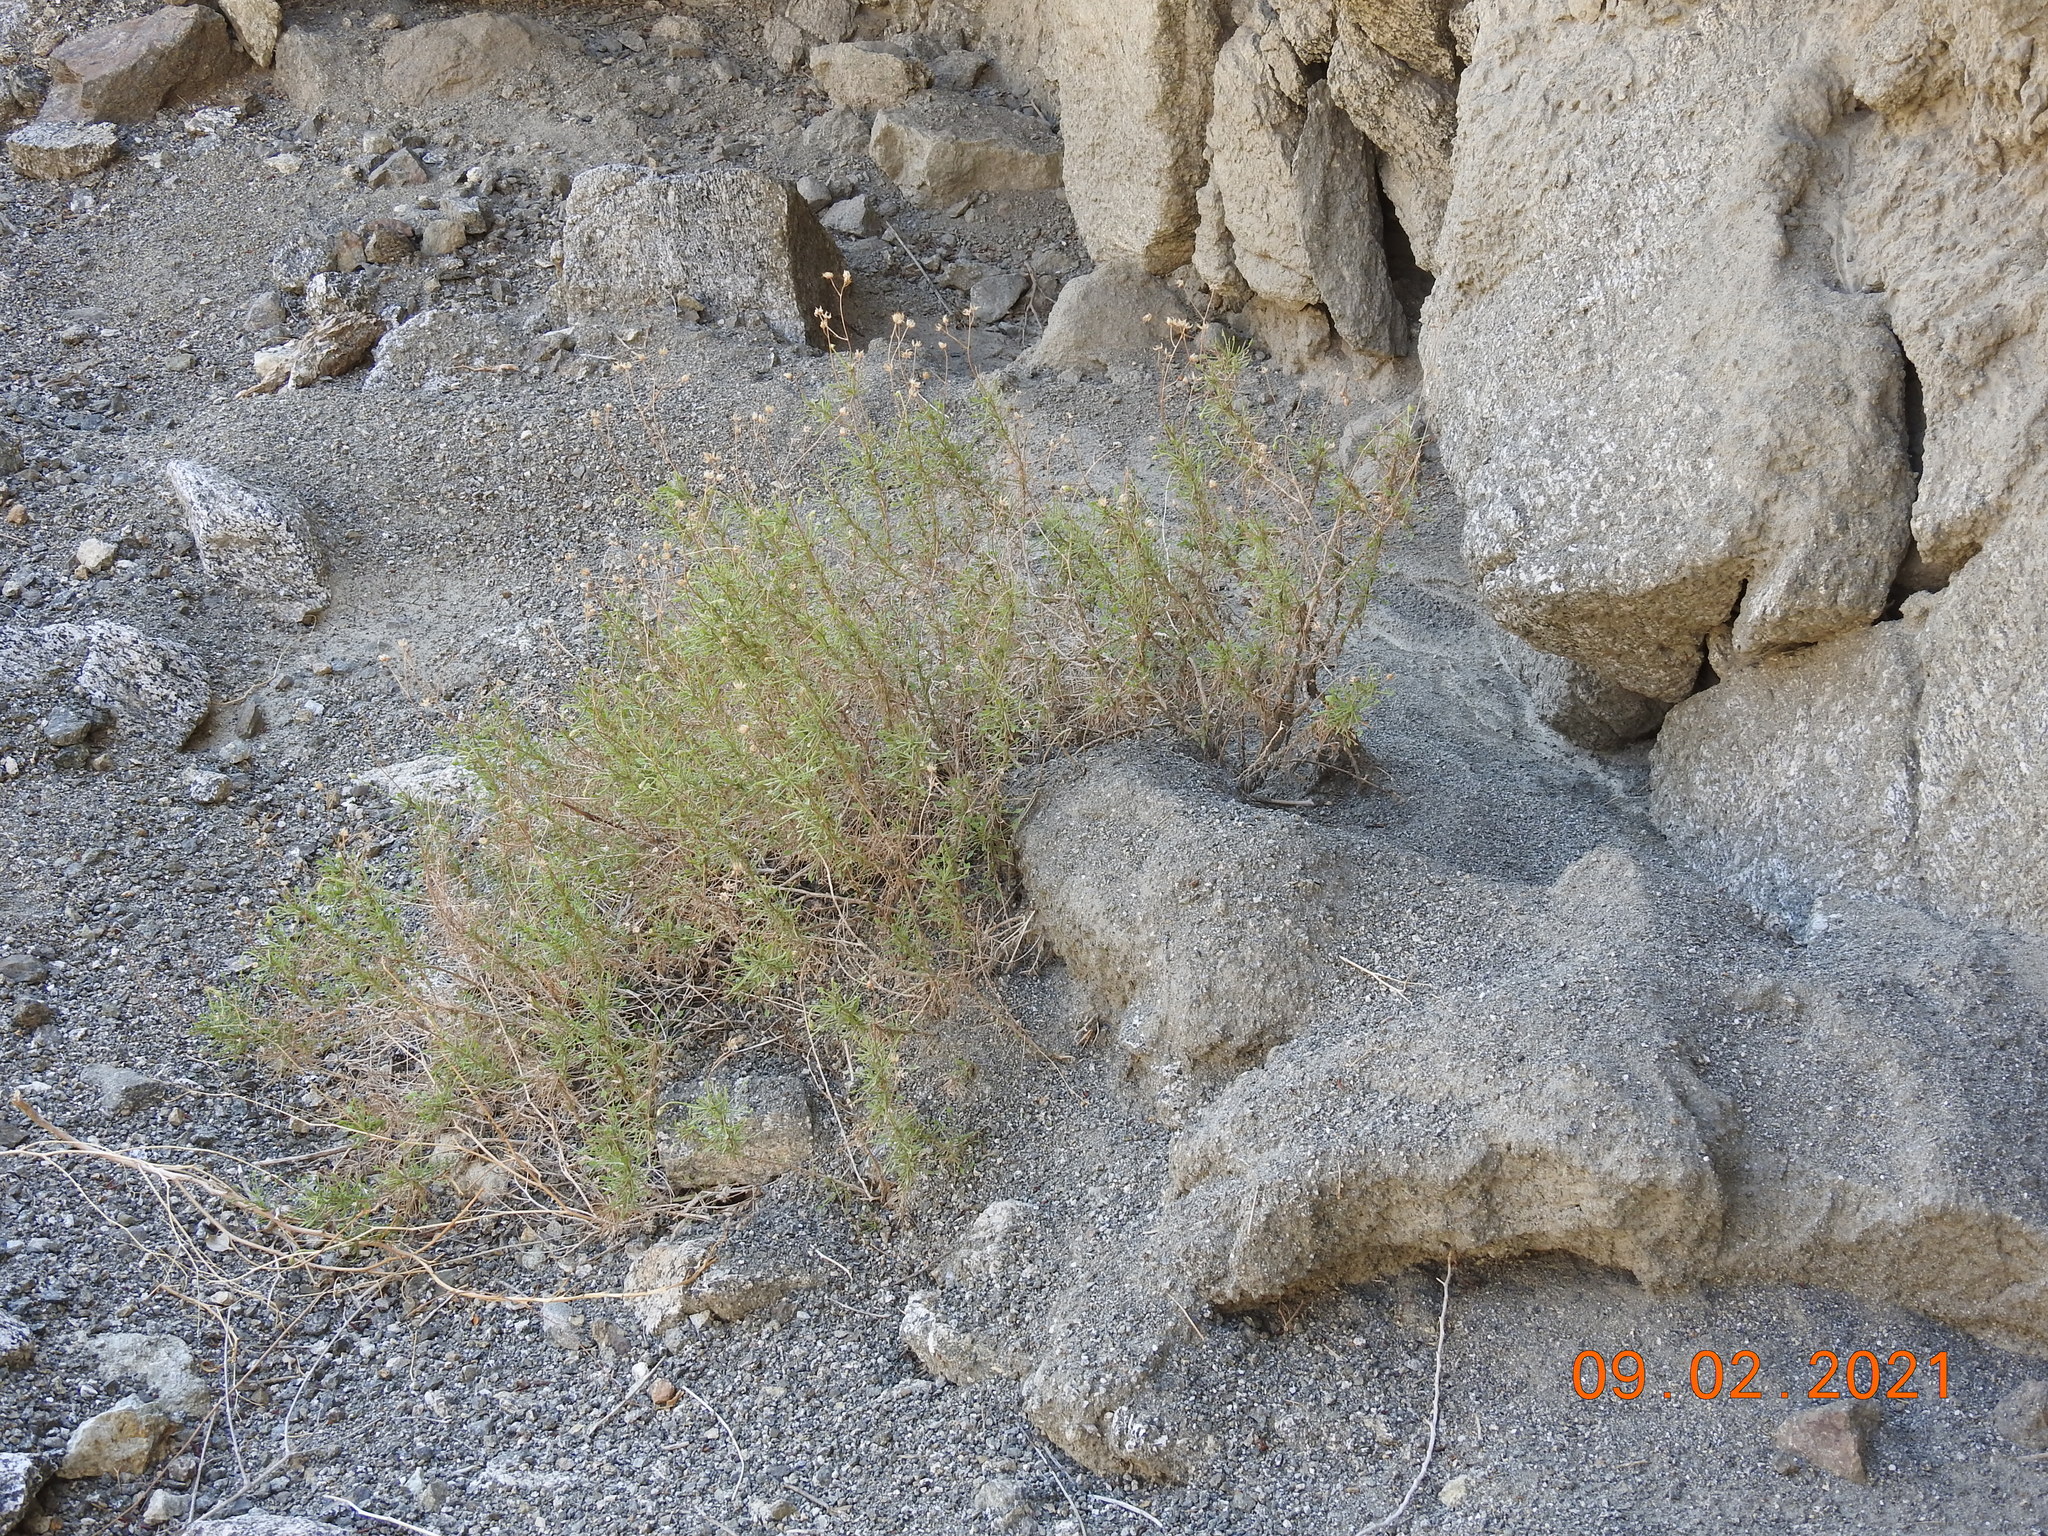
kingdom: Plantae
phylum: Tracheophyta
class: Magnoliopsida
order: Asterales
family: Asteraceae
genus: Pleurocoronis
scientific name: Pleurocoronis pluriseta
